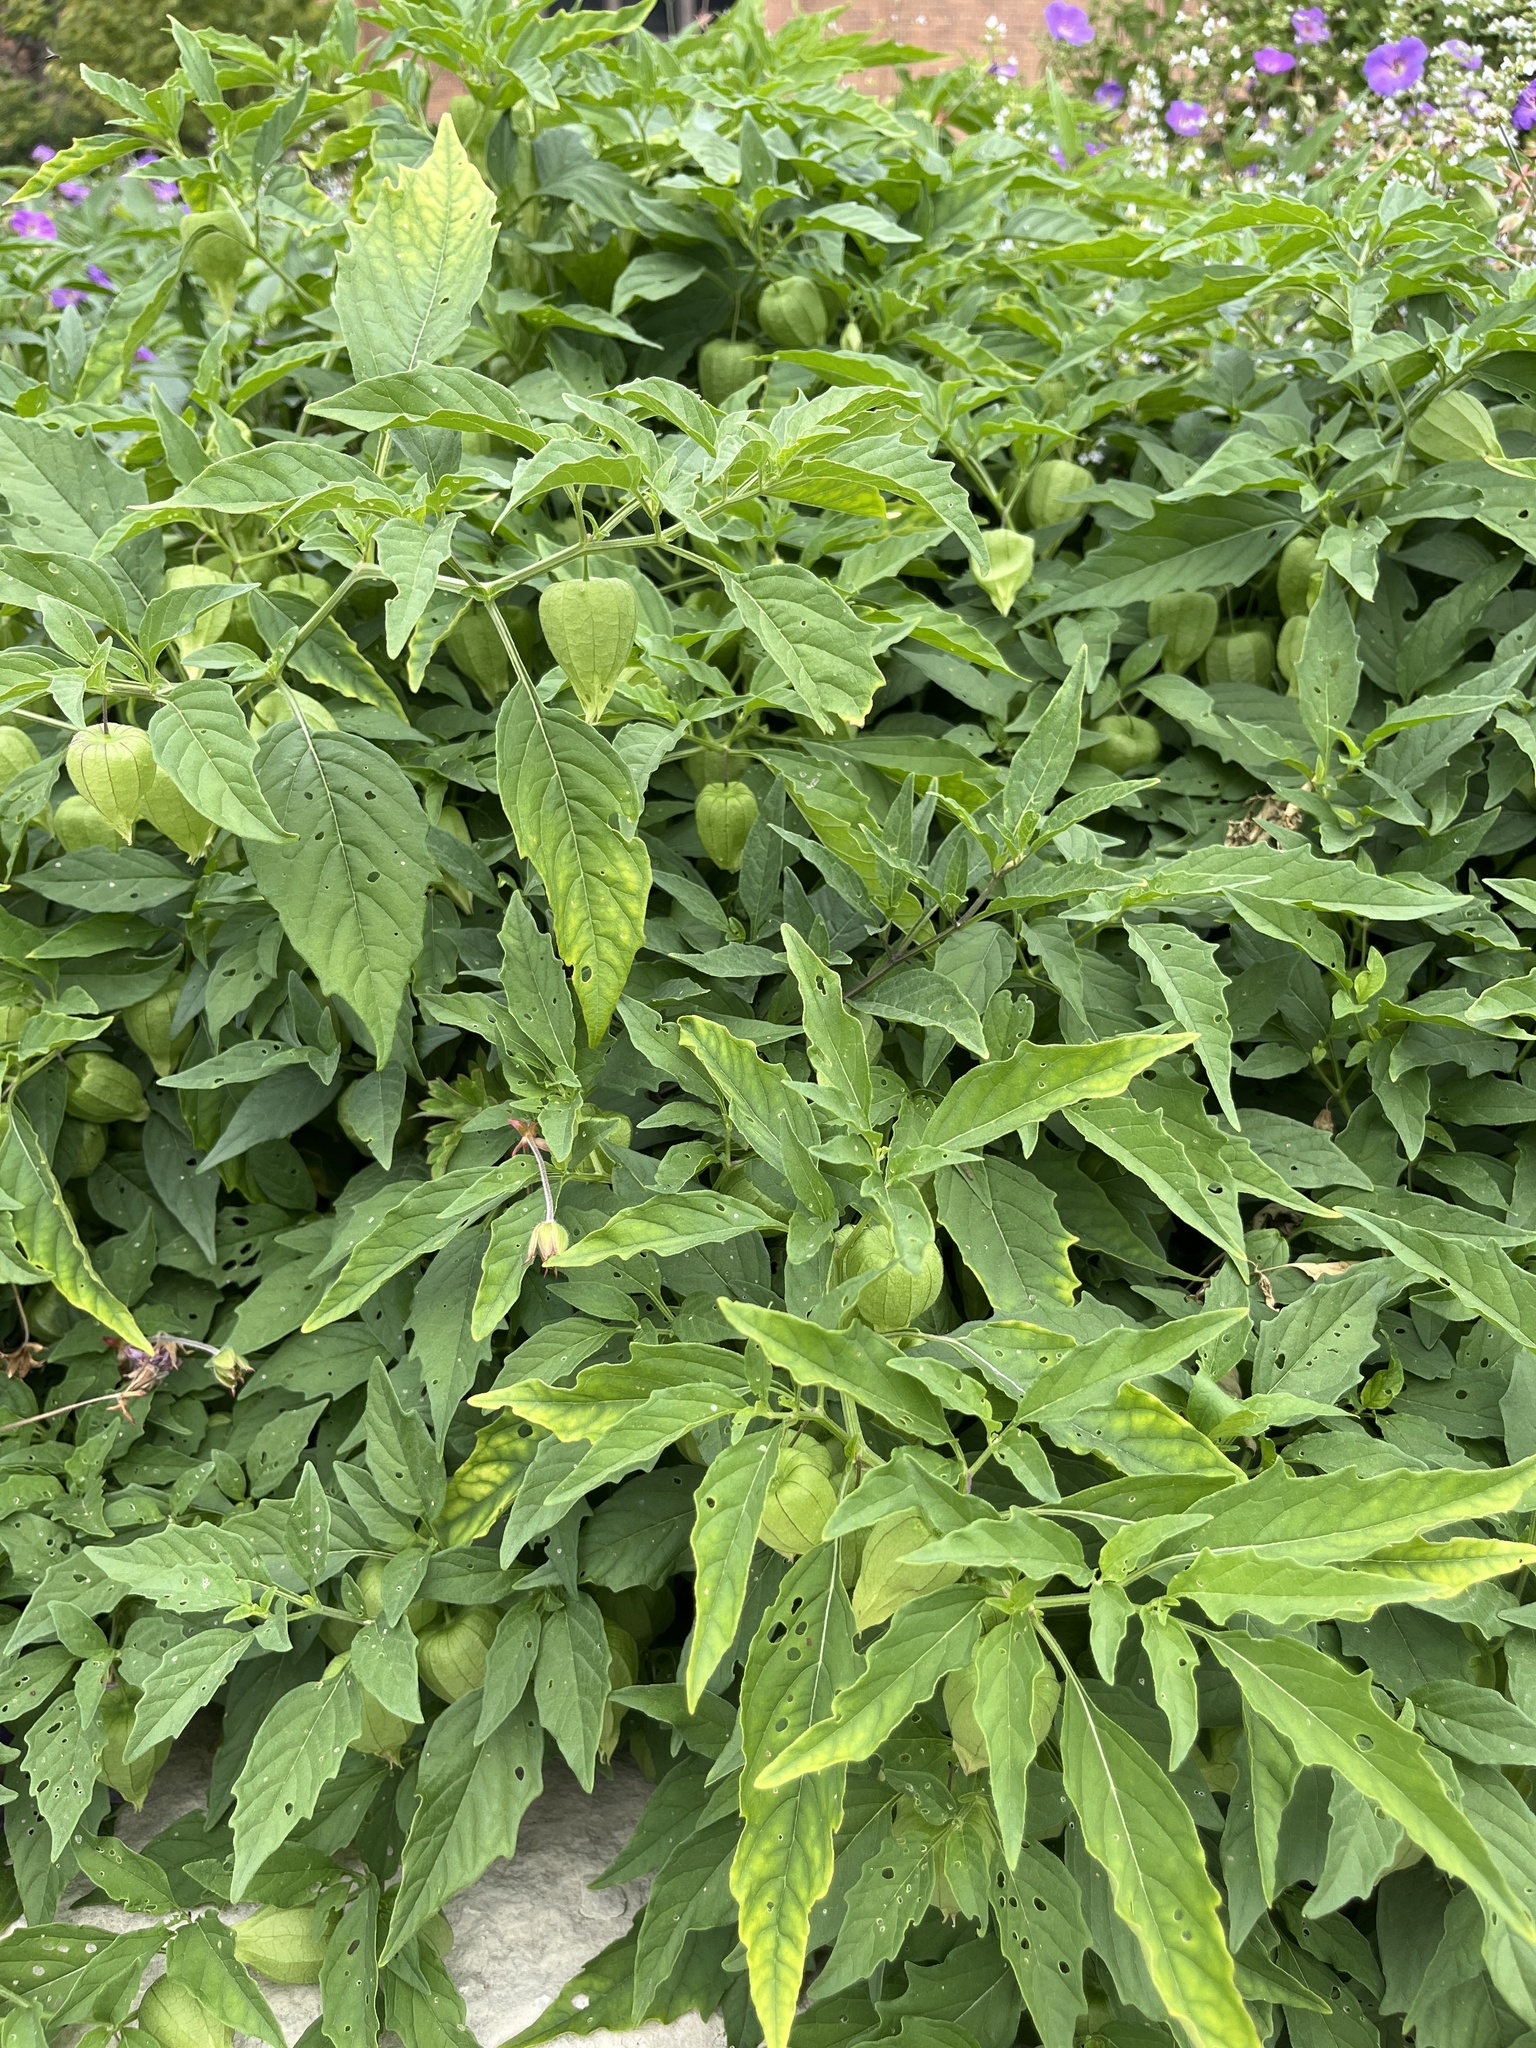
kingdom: Plantae
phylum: Tracheophyta
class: Magnoliopsida
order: Solanales
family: Solanaceae
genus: Physalis
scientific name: Physalis longifolia
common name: Common ground-cherry
